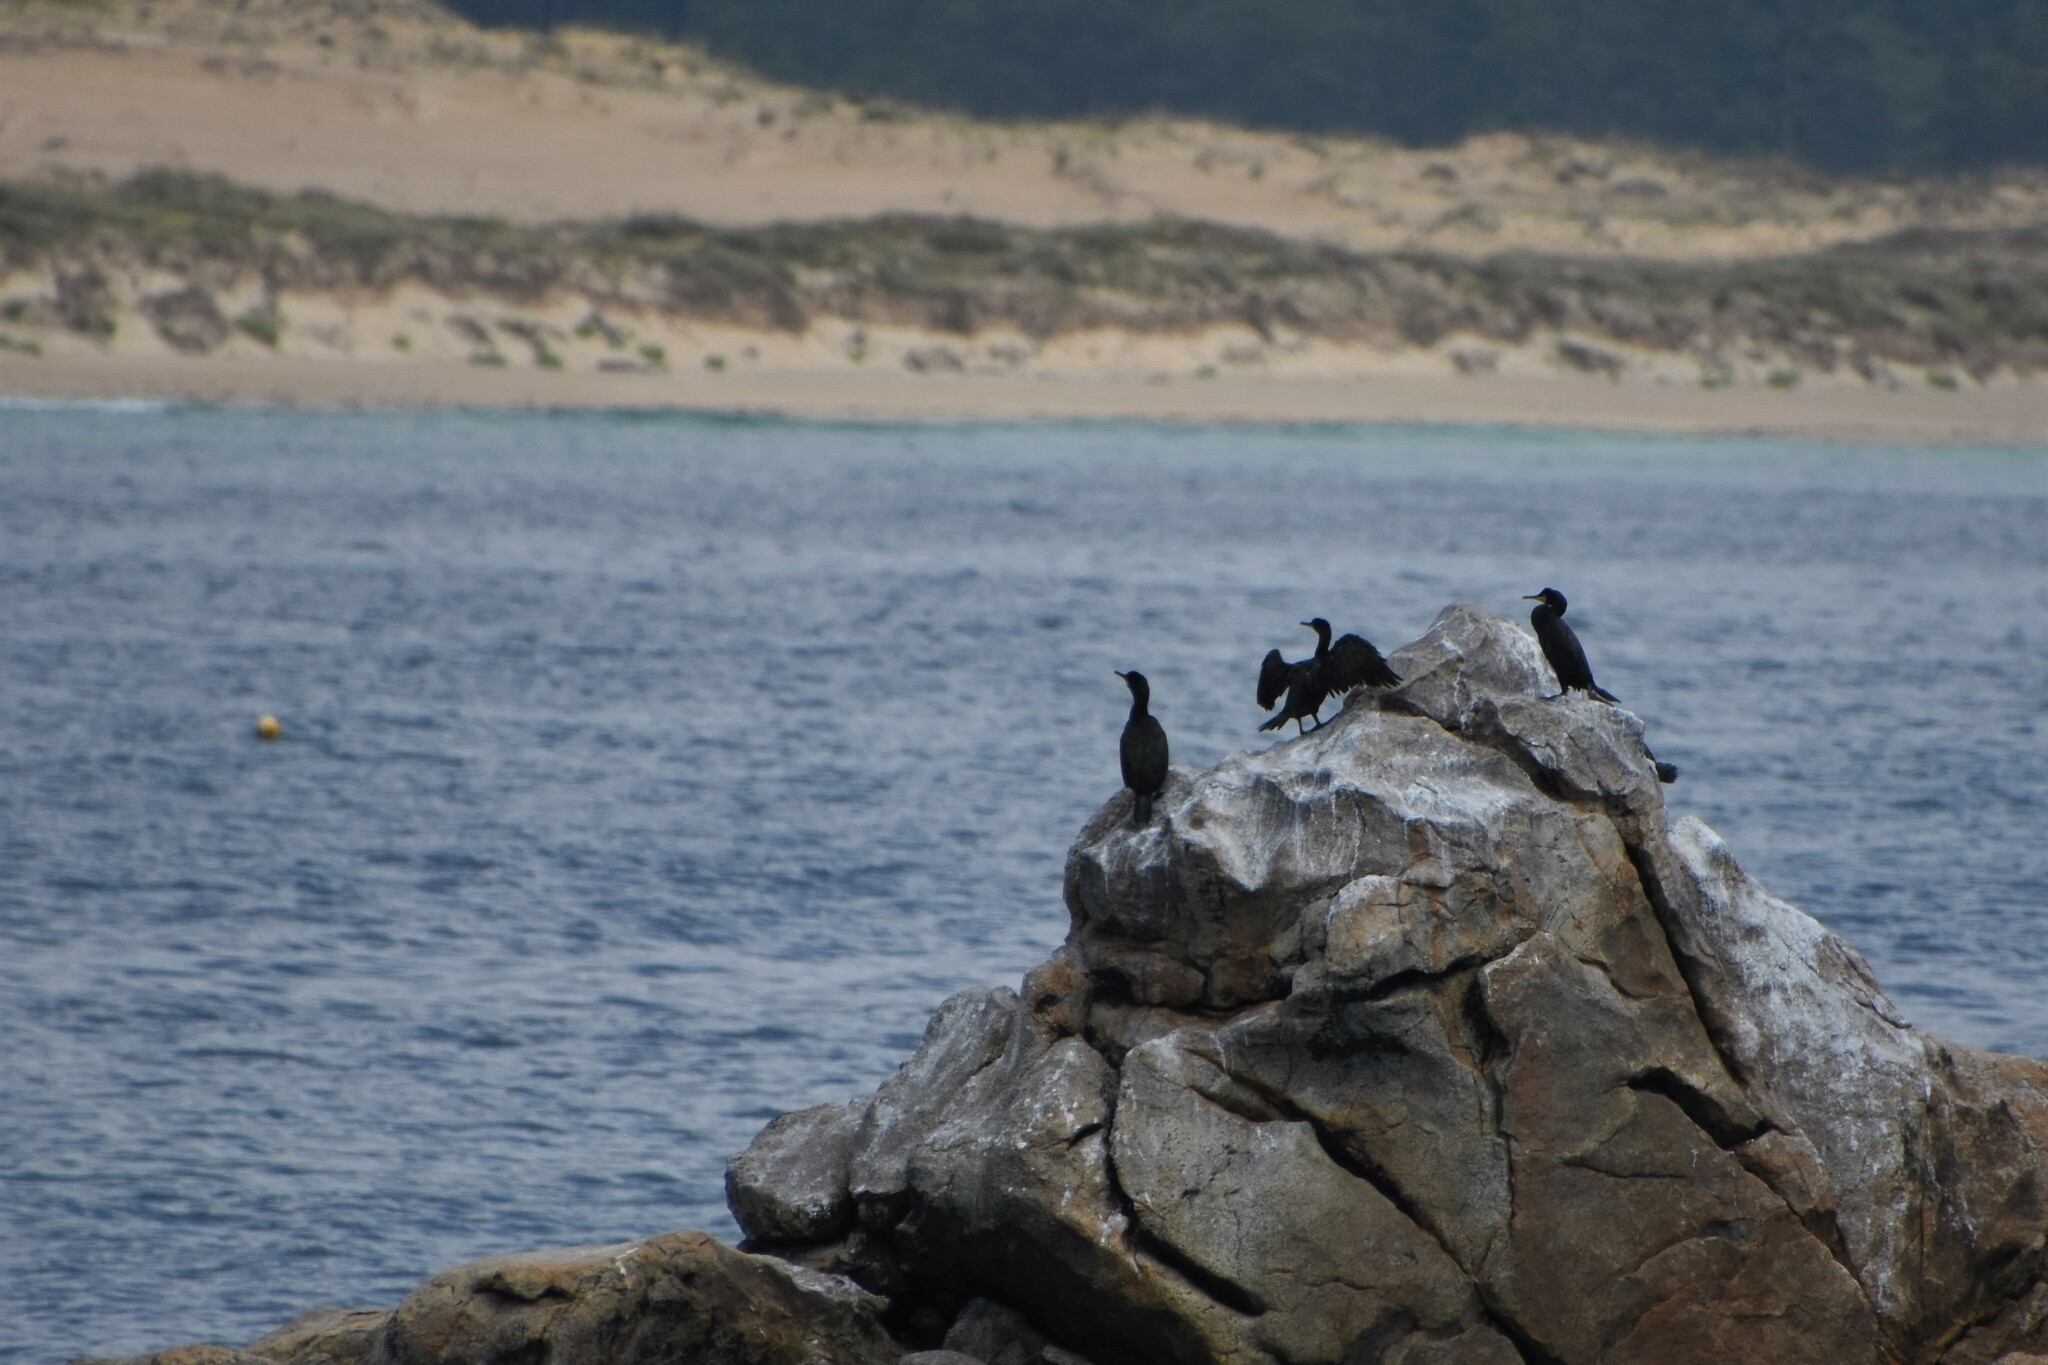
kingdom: Animalia
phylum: Chordata
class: Aves
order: Suliformes
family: Phalacrocoracidae
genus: Phalacrocorax
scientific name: Phalacrocorax aristotelis
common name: European shag
